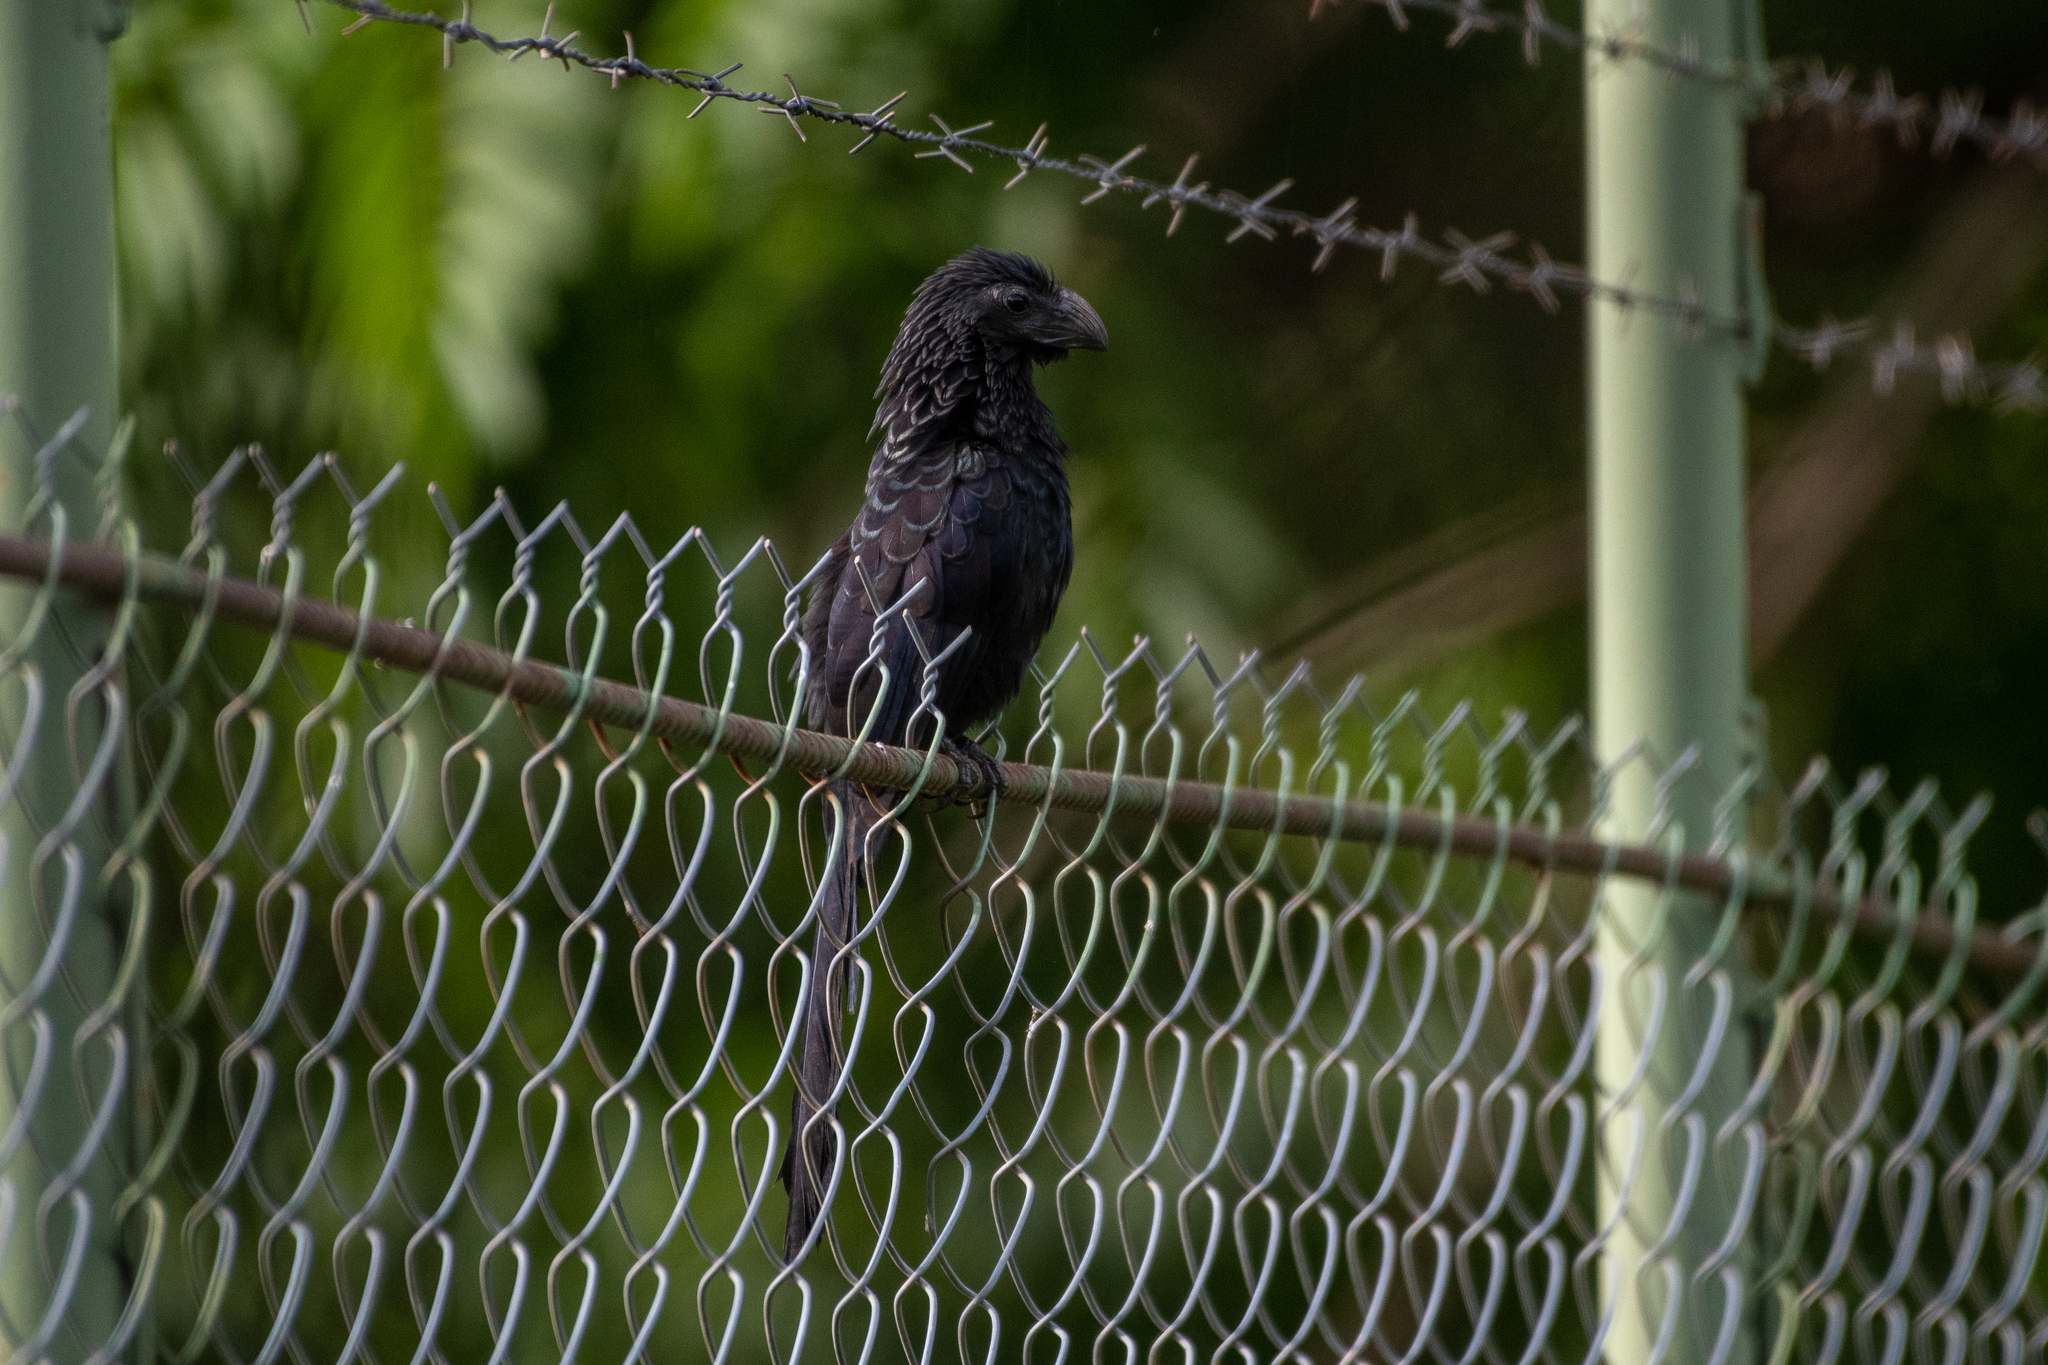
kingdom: Animalia
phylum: Chordata
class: Aves
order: Cuculiformes
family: Cuculidae
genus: Crotophaga
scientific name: Crotophaga sulcirostris
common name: Groove-billed ani
